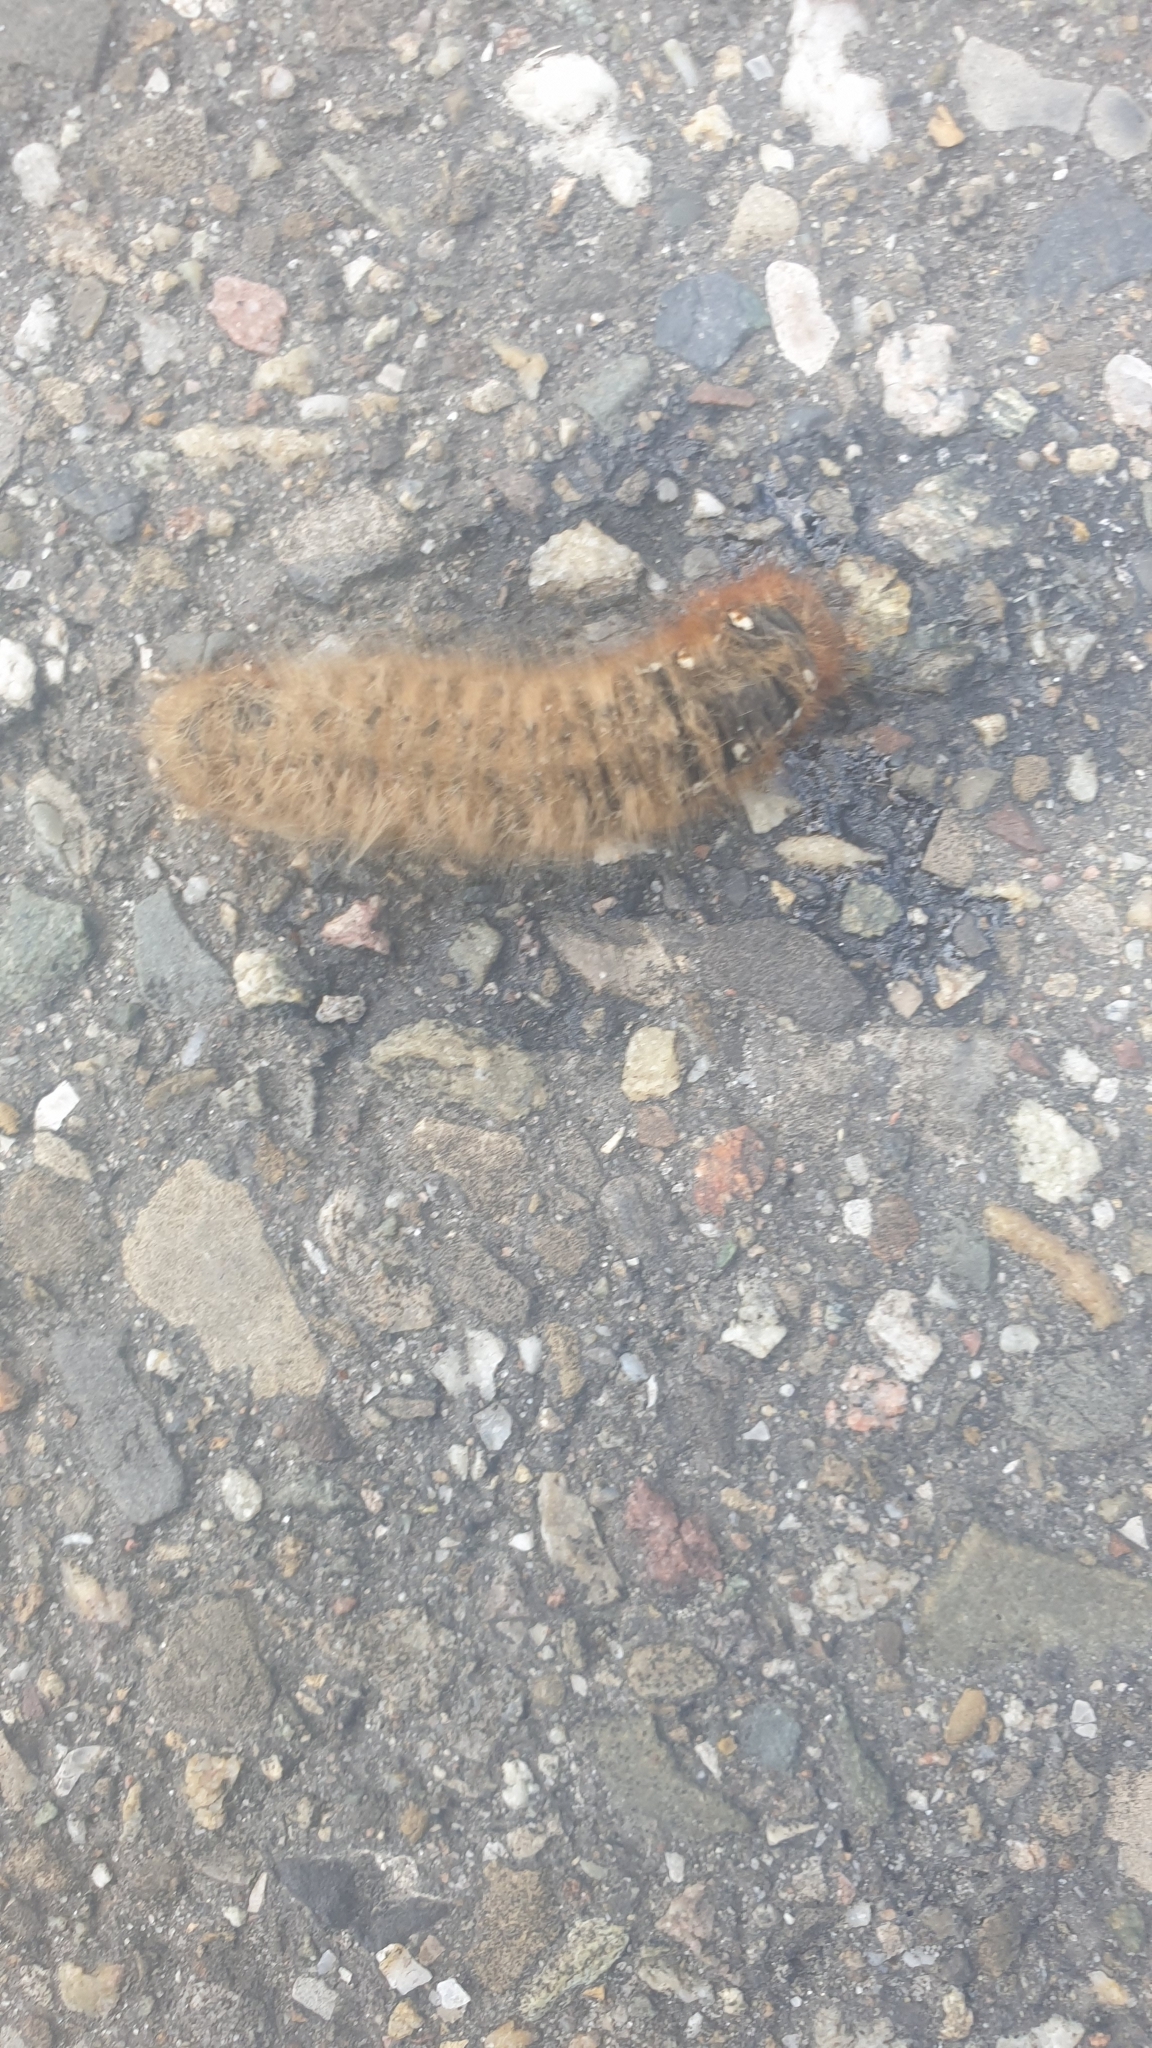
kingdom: Animalia
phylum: Arthropoda
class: Insecta
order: Lepidoptera
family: Lasiocampidae
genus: Lasiocampa
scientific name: Lasiocampa quercus
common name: Oak eggar
